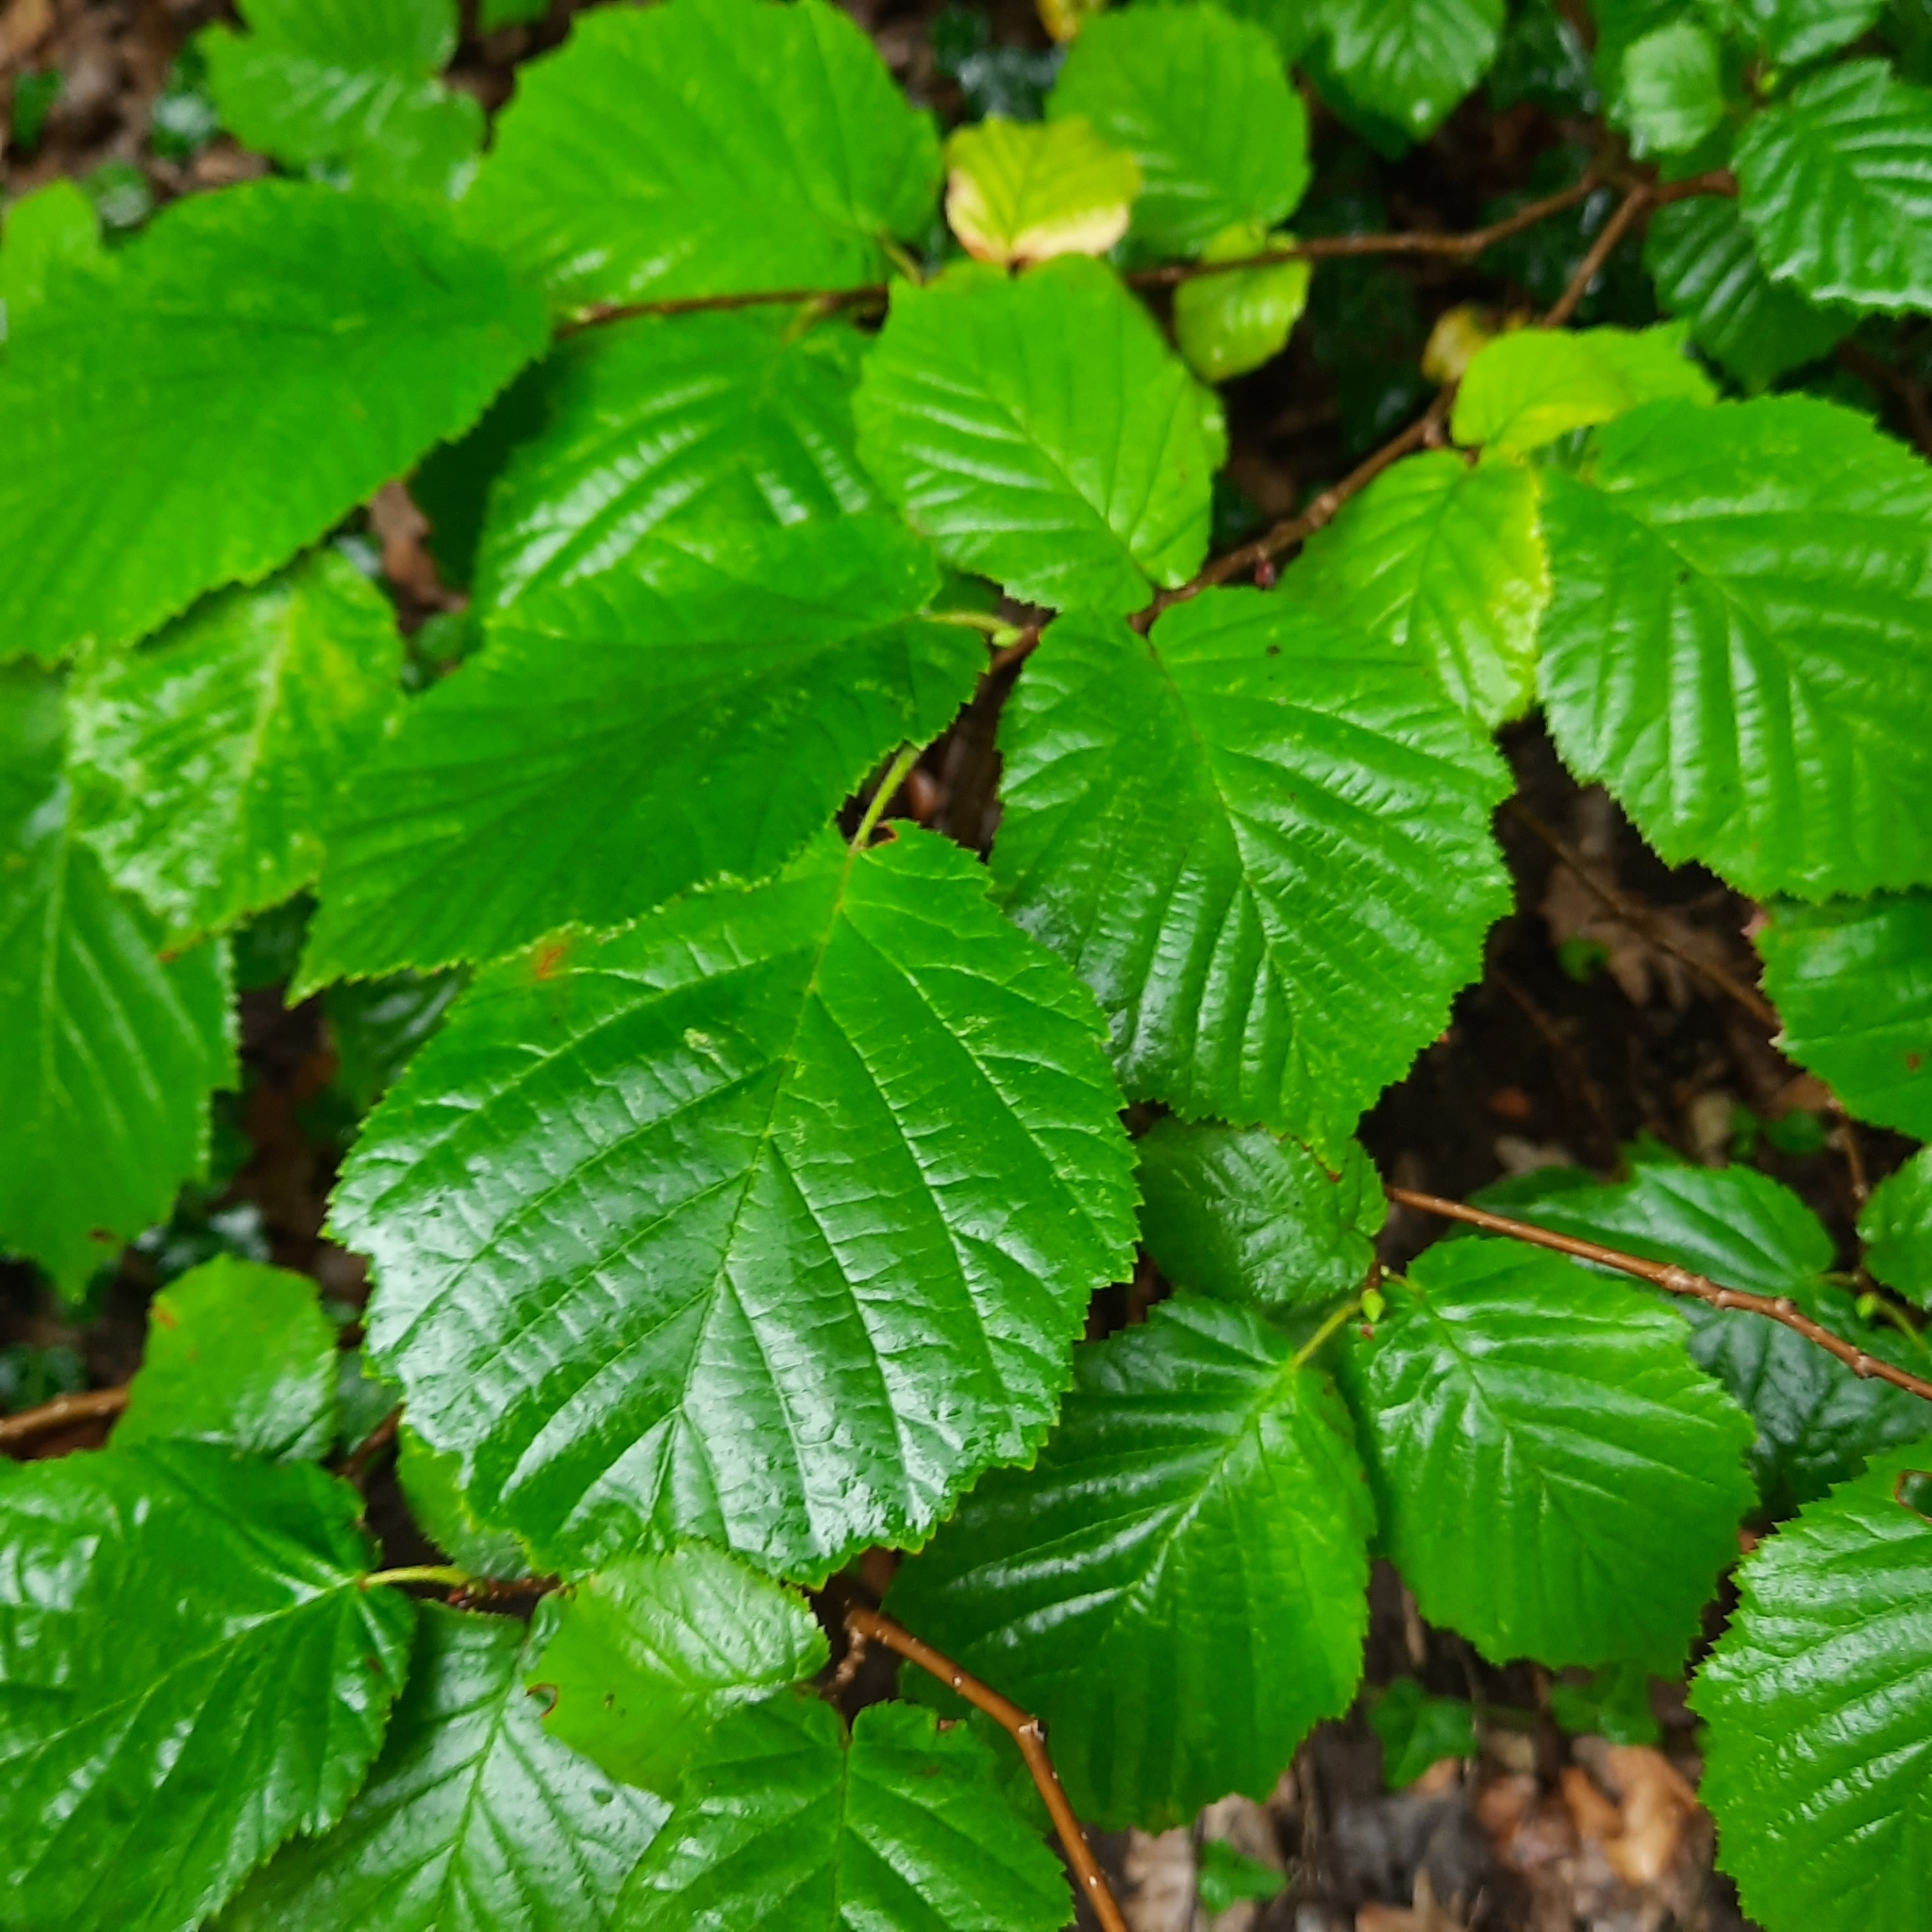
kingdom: Plantae
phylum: Tracheophyta
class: Magnoliopsida
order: Fagales
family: Betulaceae
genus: Corylus
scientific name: Corylus avellana
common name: European hazel
